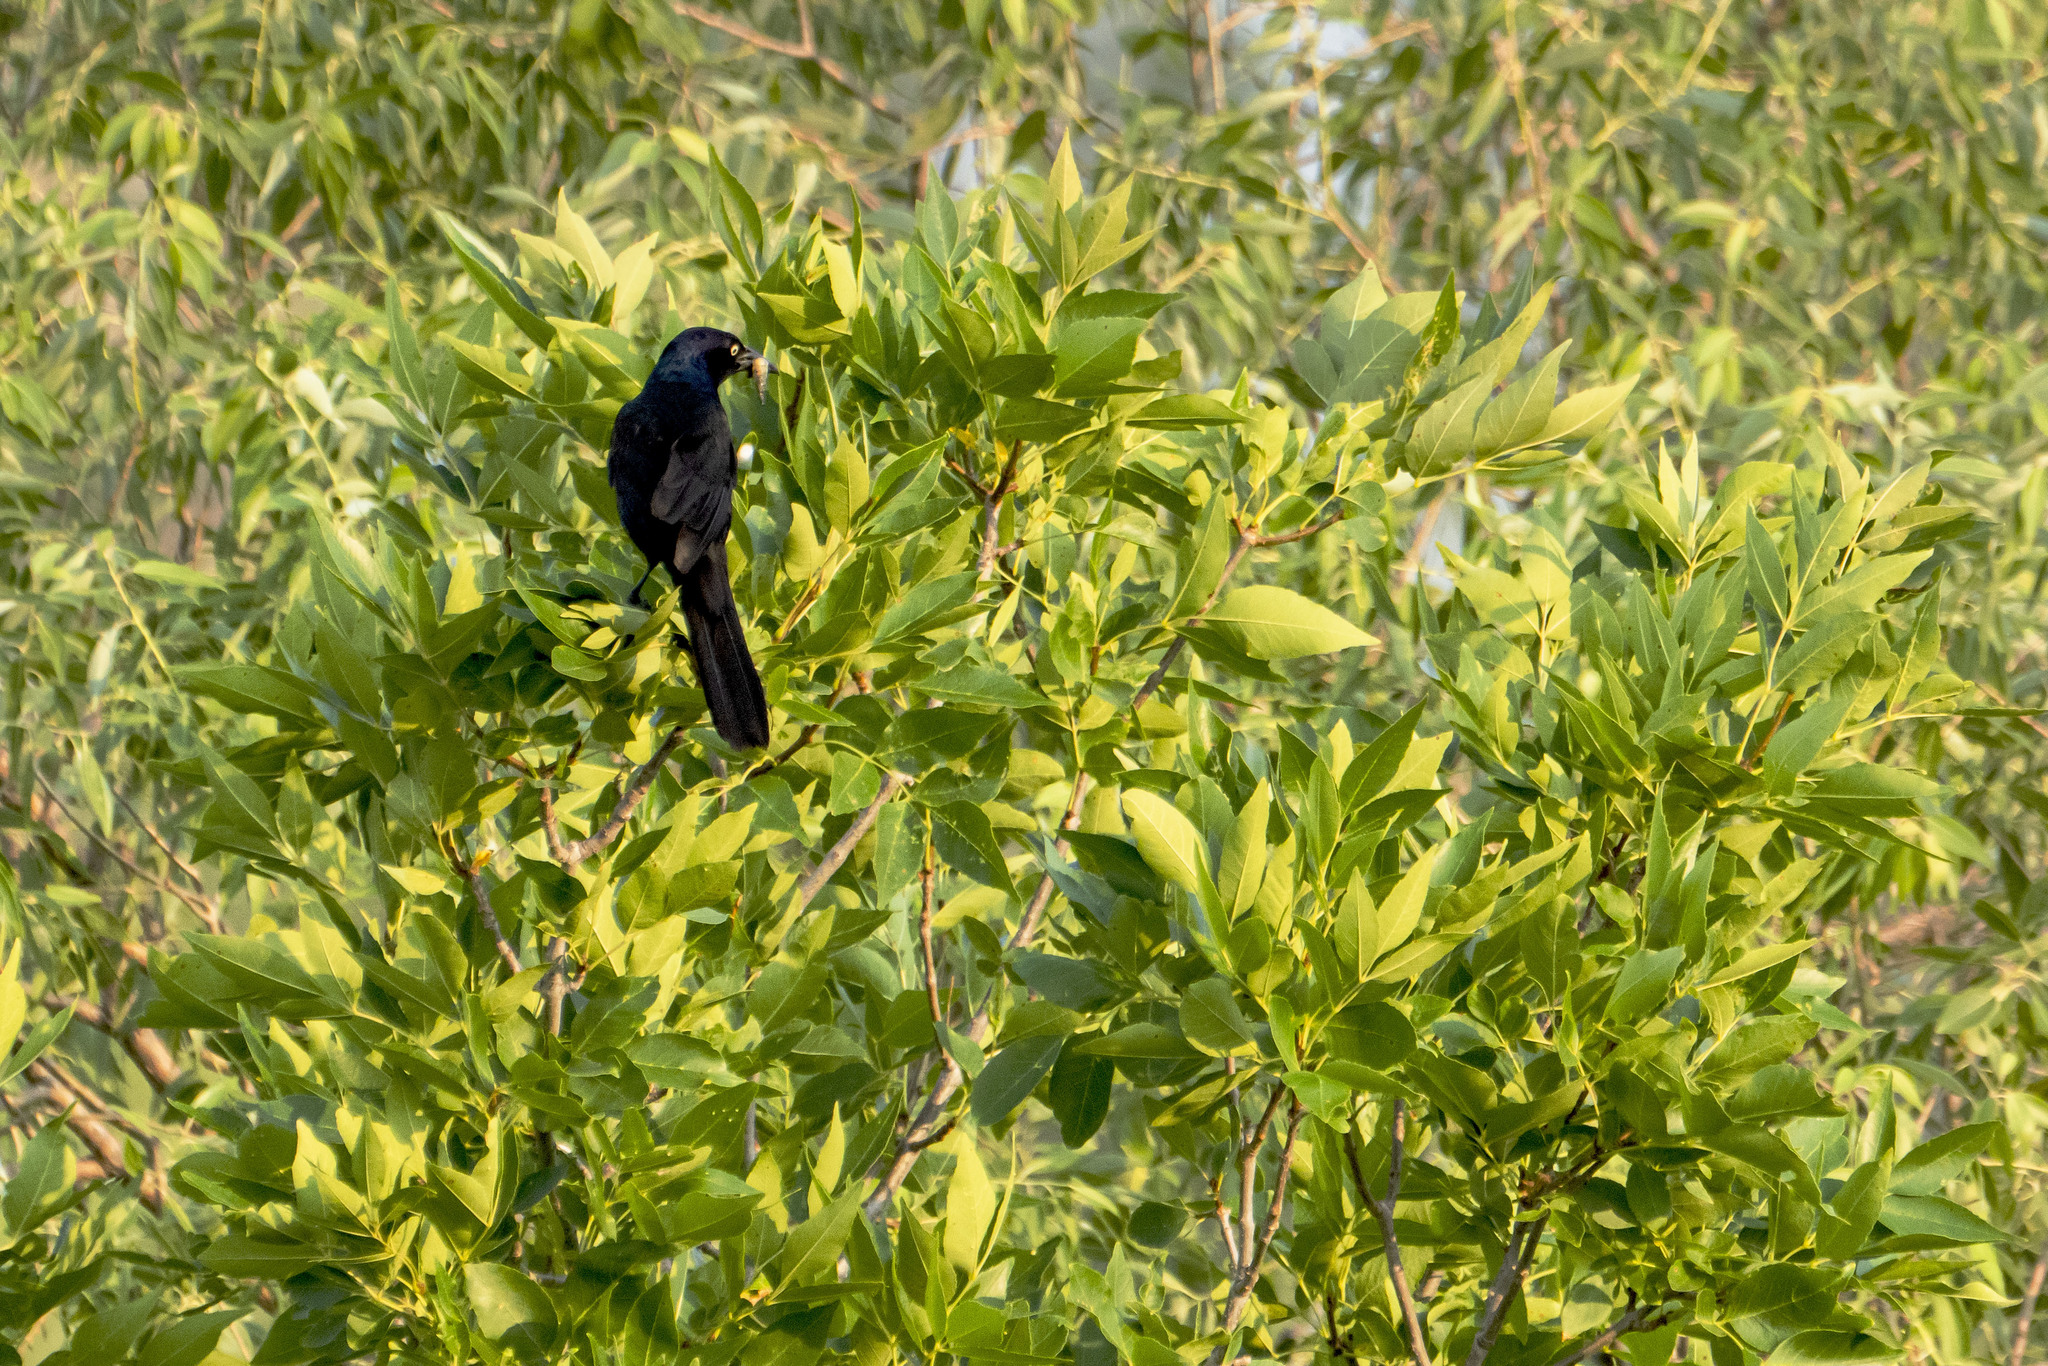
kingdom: Animalia
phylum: Chordata
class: Aves
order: Passeriformes
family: Icteridae
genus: Quiscalus
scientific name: Quiscalus quiscula
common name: Common grackle
